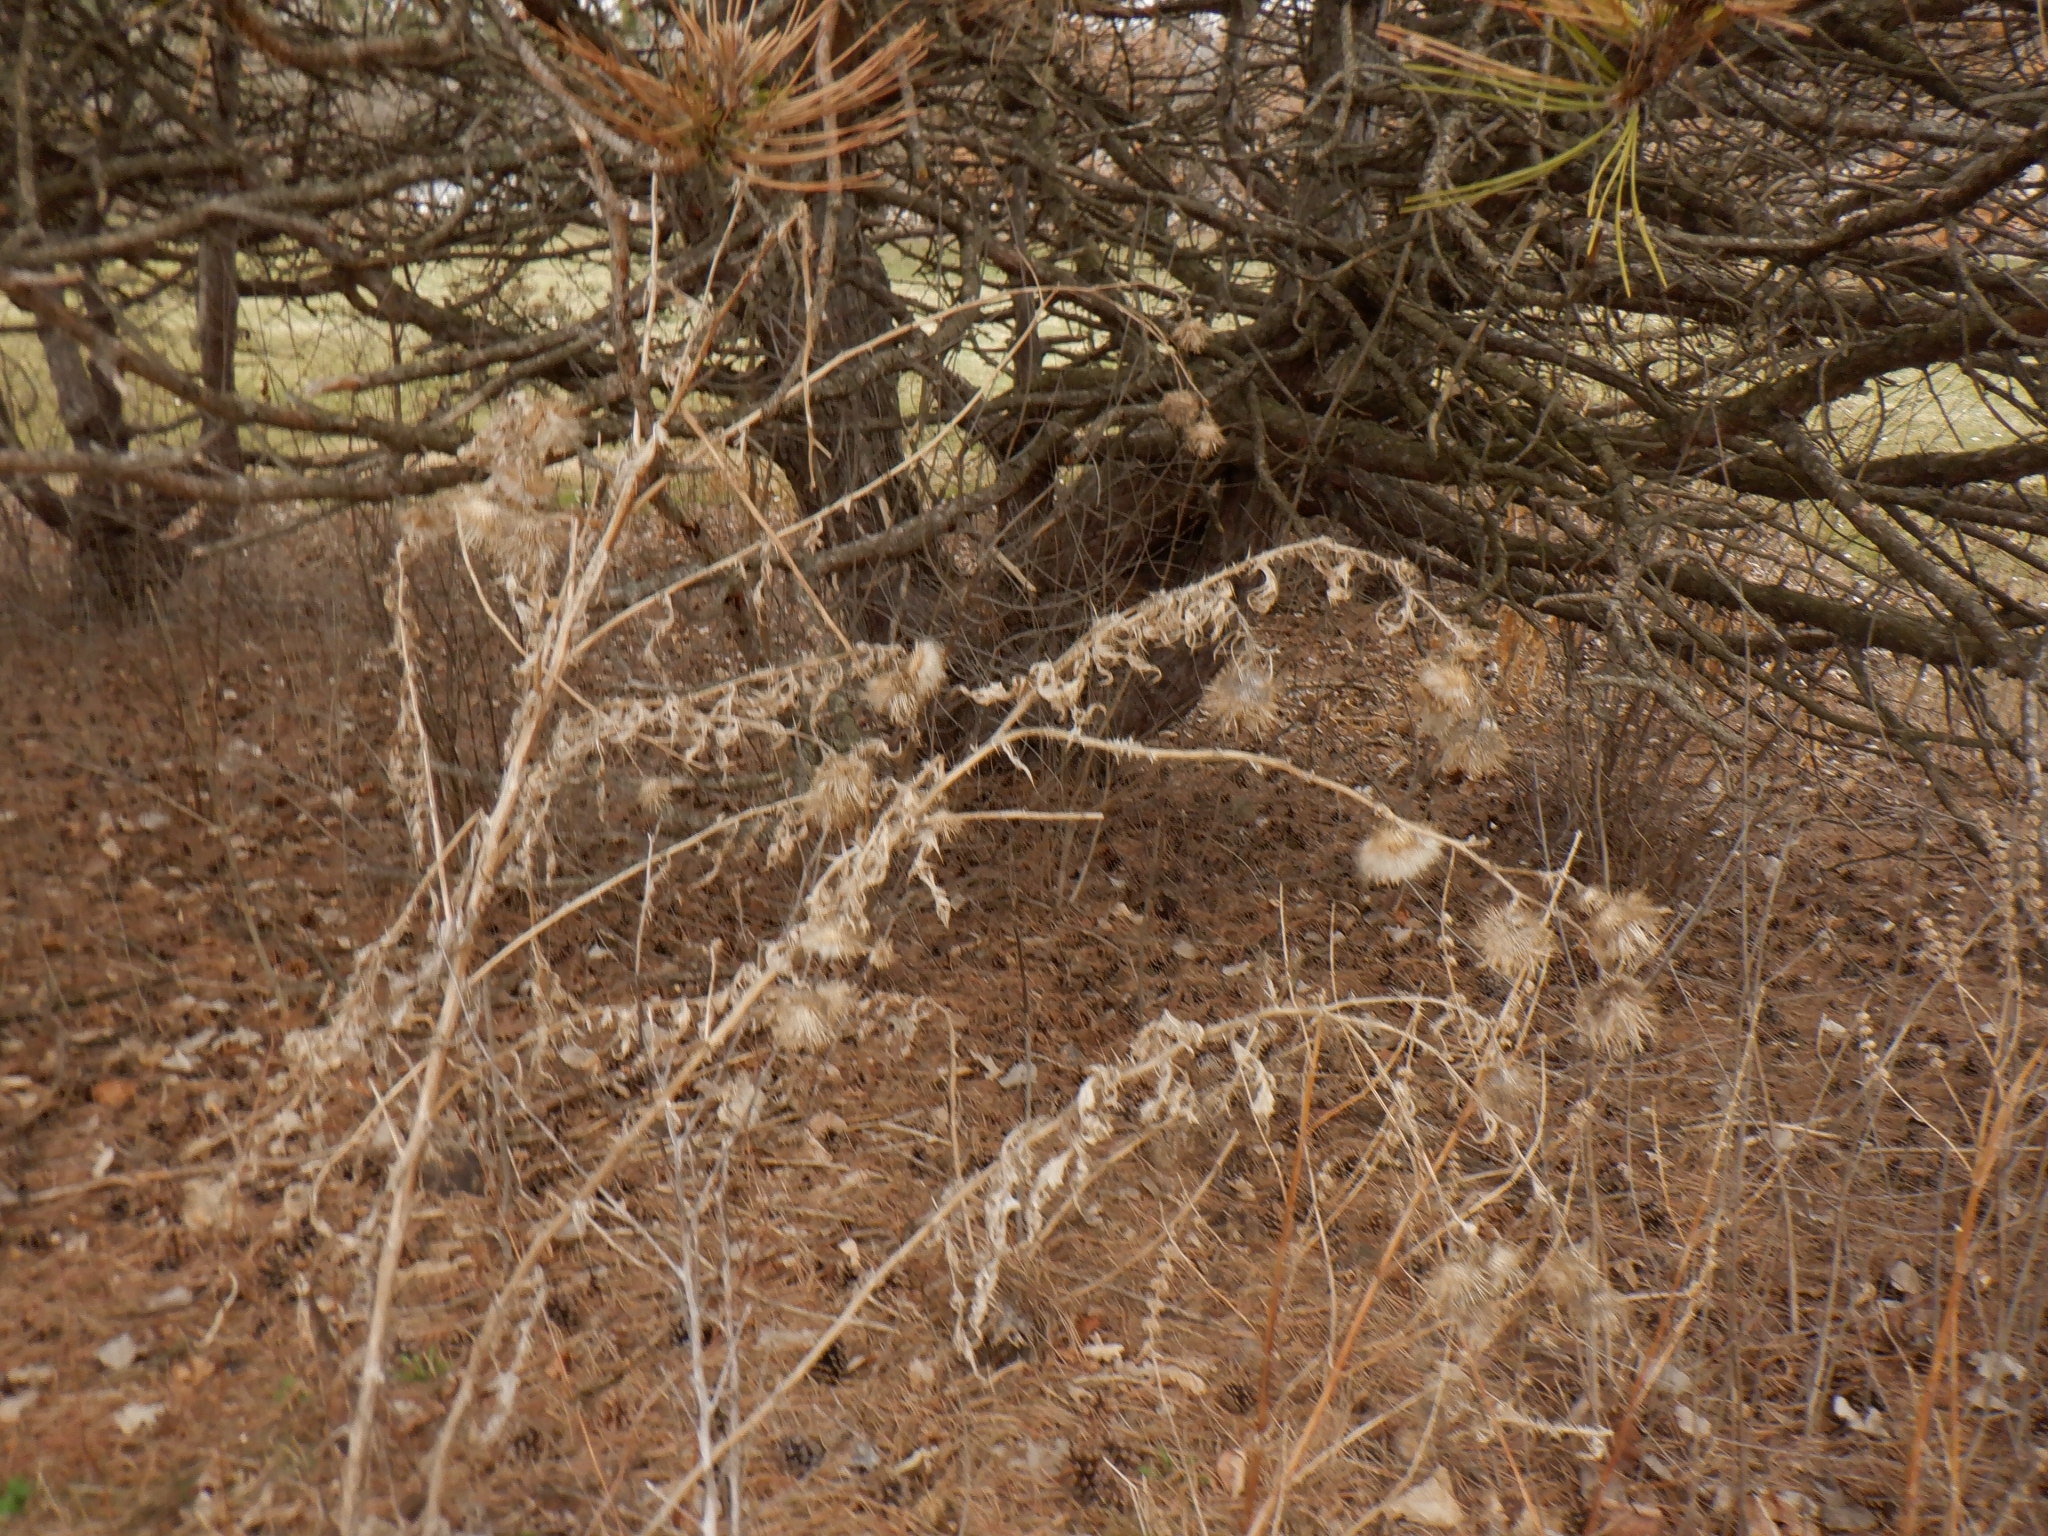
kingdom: Plantae
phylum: Tracheophyta
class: Magnoliopsida
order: Asterales
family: Asteraceae
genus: Cirsium
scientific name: Cirsium vulgare
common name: Bull thistle
